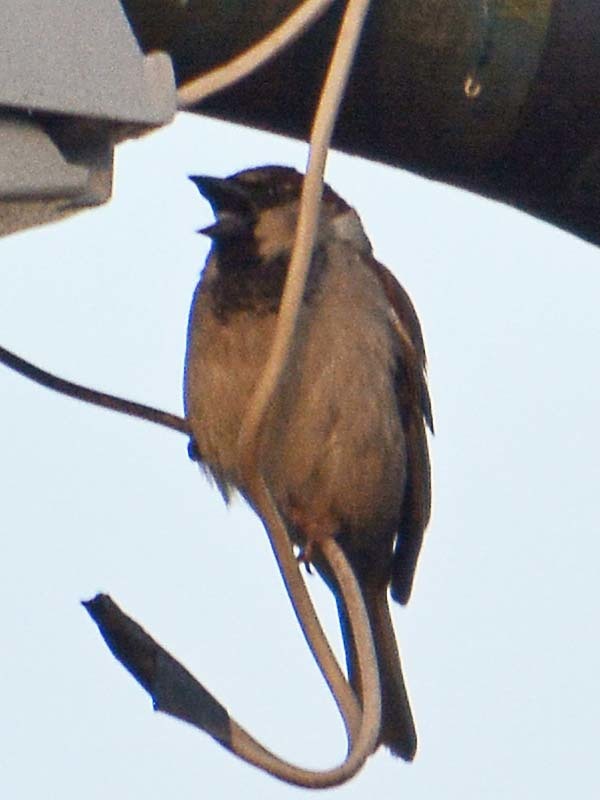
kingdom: Animalia
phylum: Chordata
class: Aves
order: Passeriformes
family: Passeridae
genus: Passer
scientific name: Passer domesticus
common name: House sparrow
